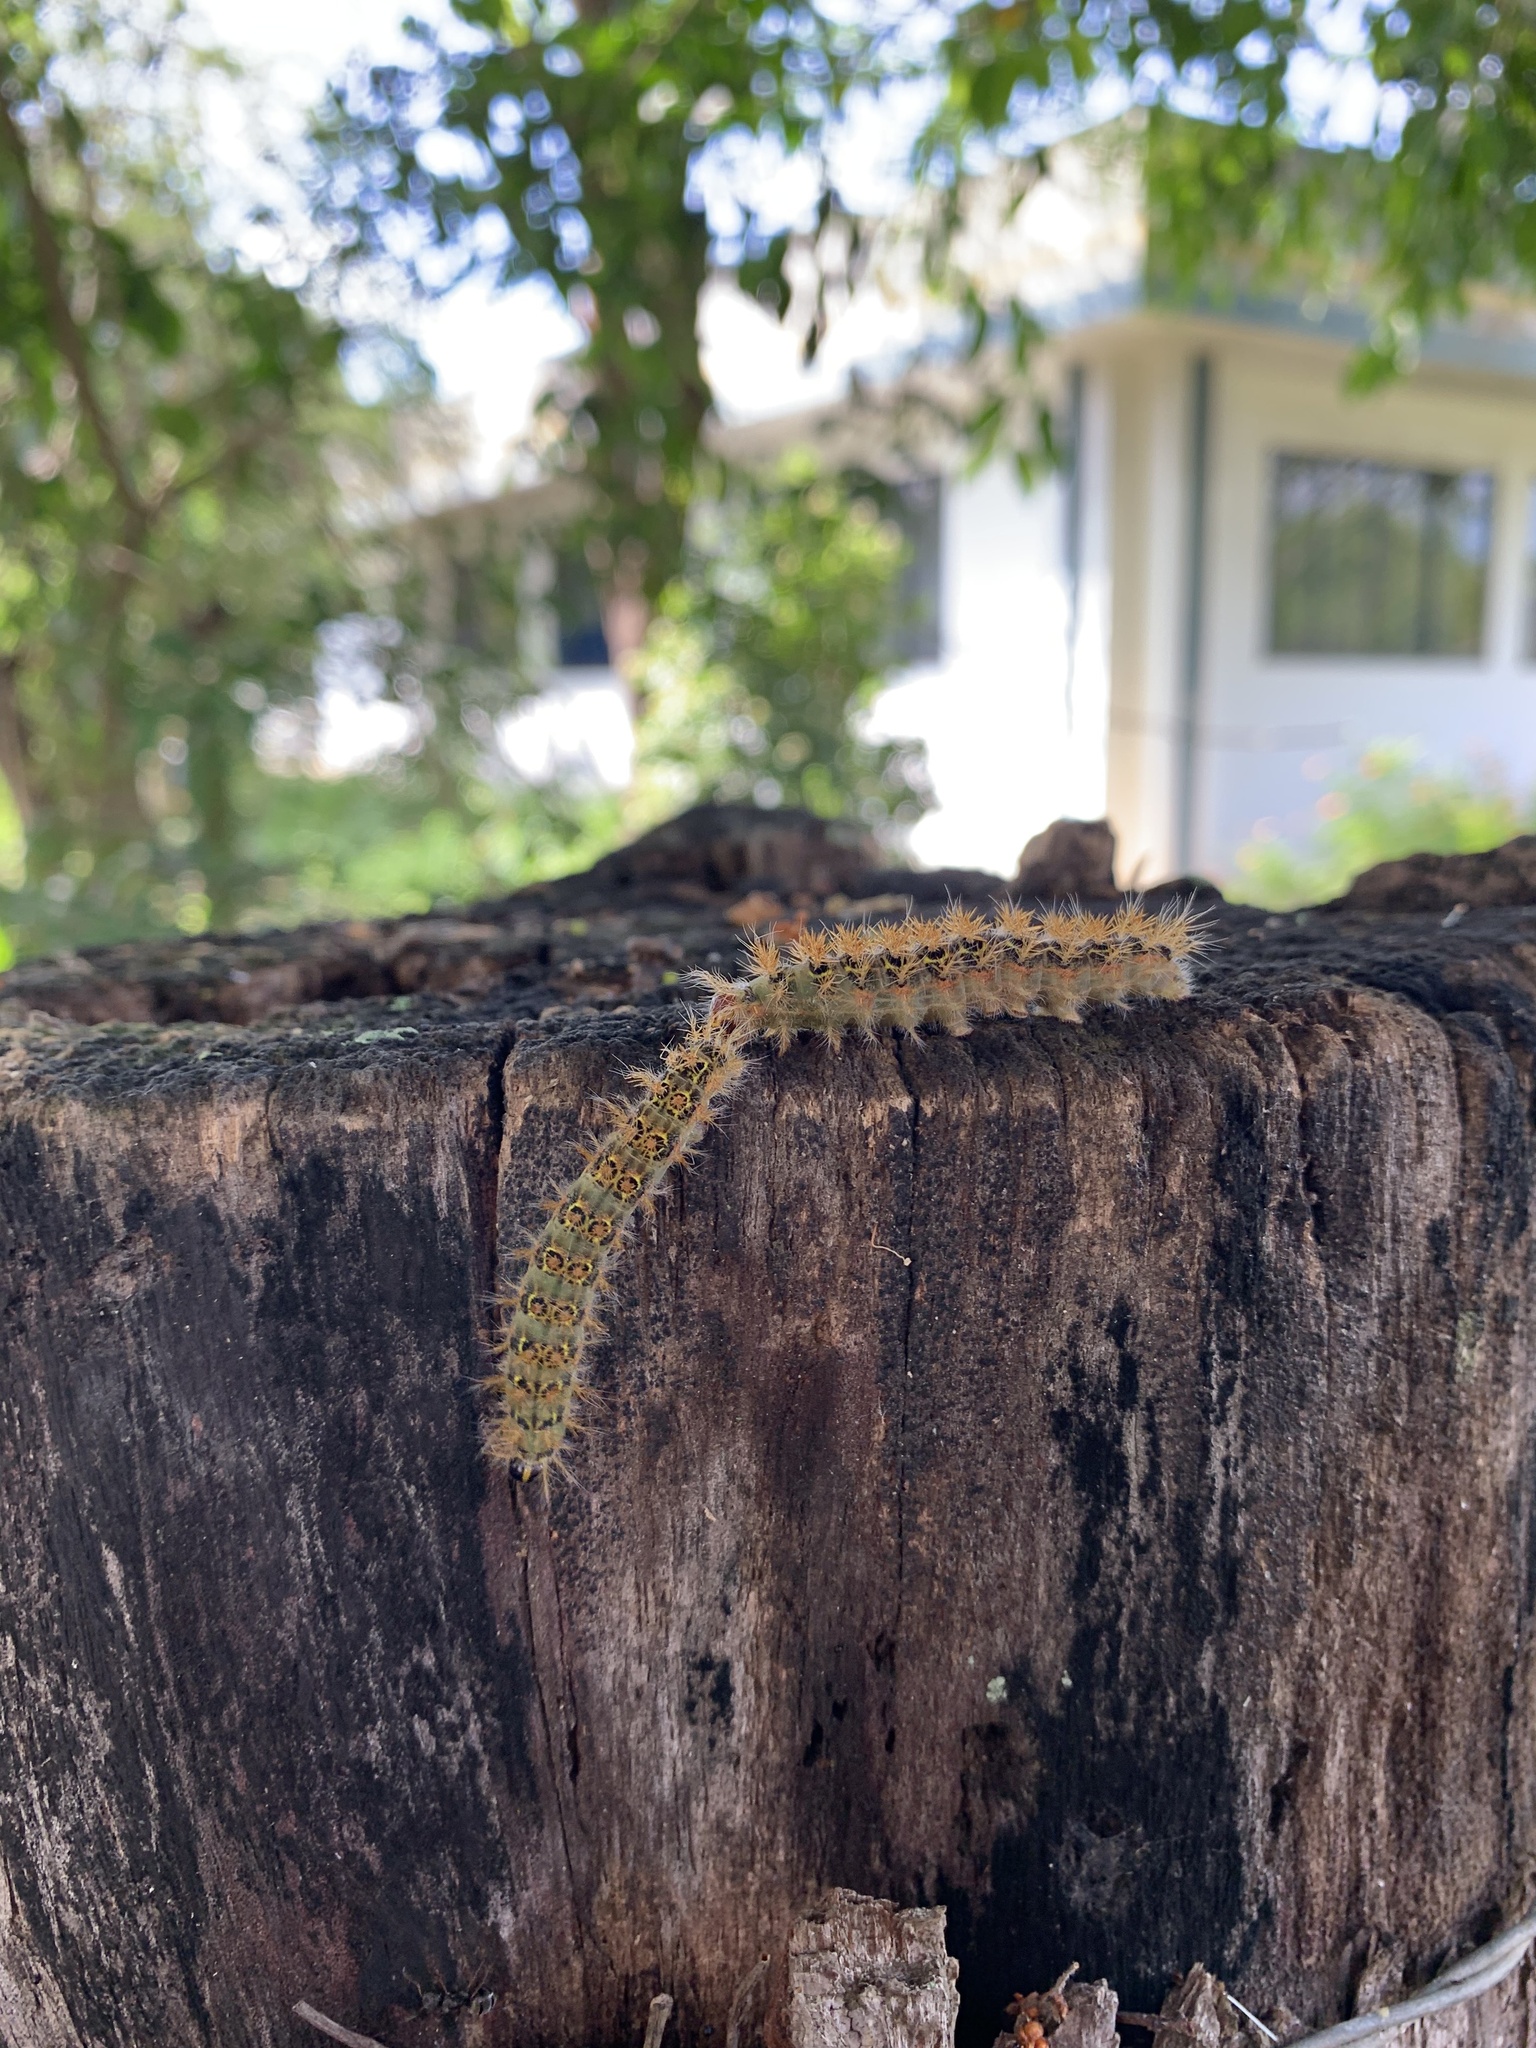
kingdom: Animalia
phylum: Arthropoda
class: Insecta
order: Lepidoptera
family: Saturniidae
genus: Hylesia
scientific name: Hylesia nanus
